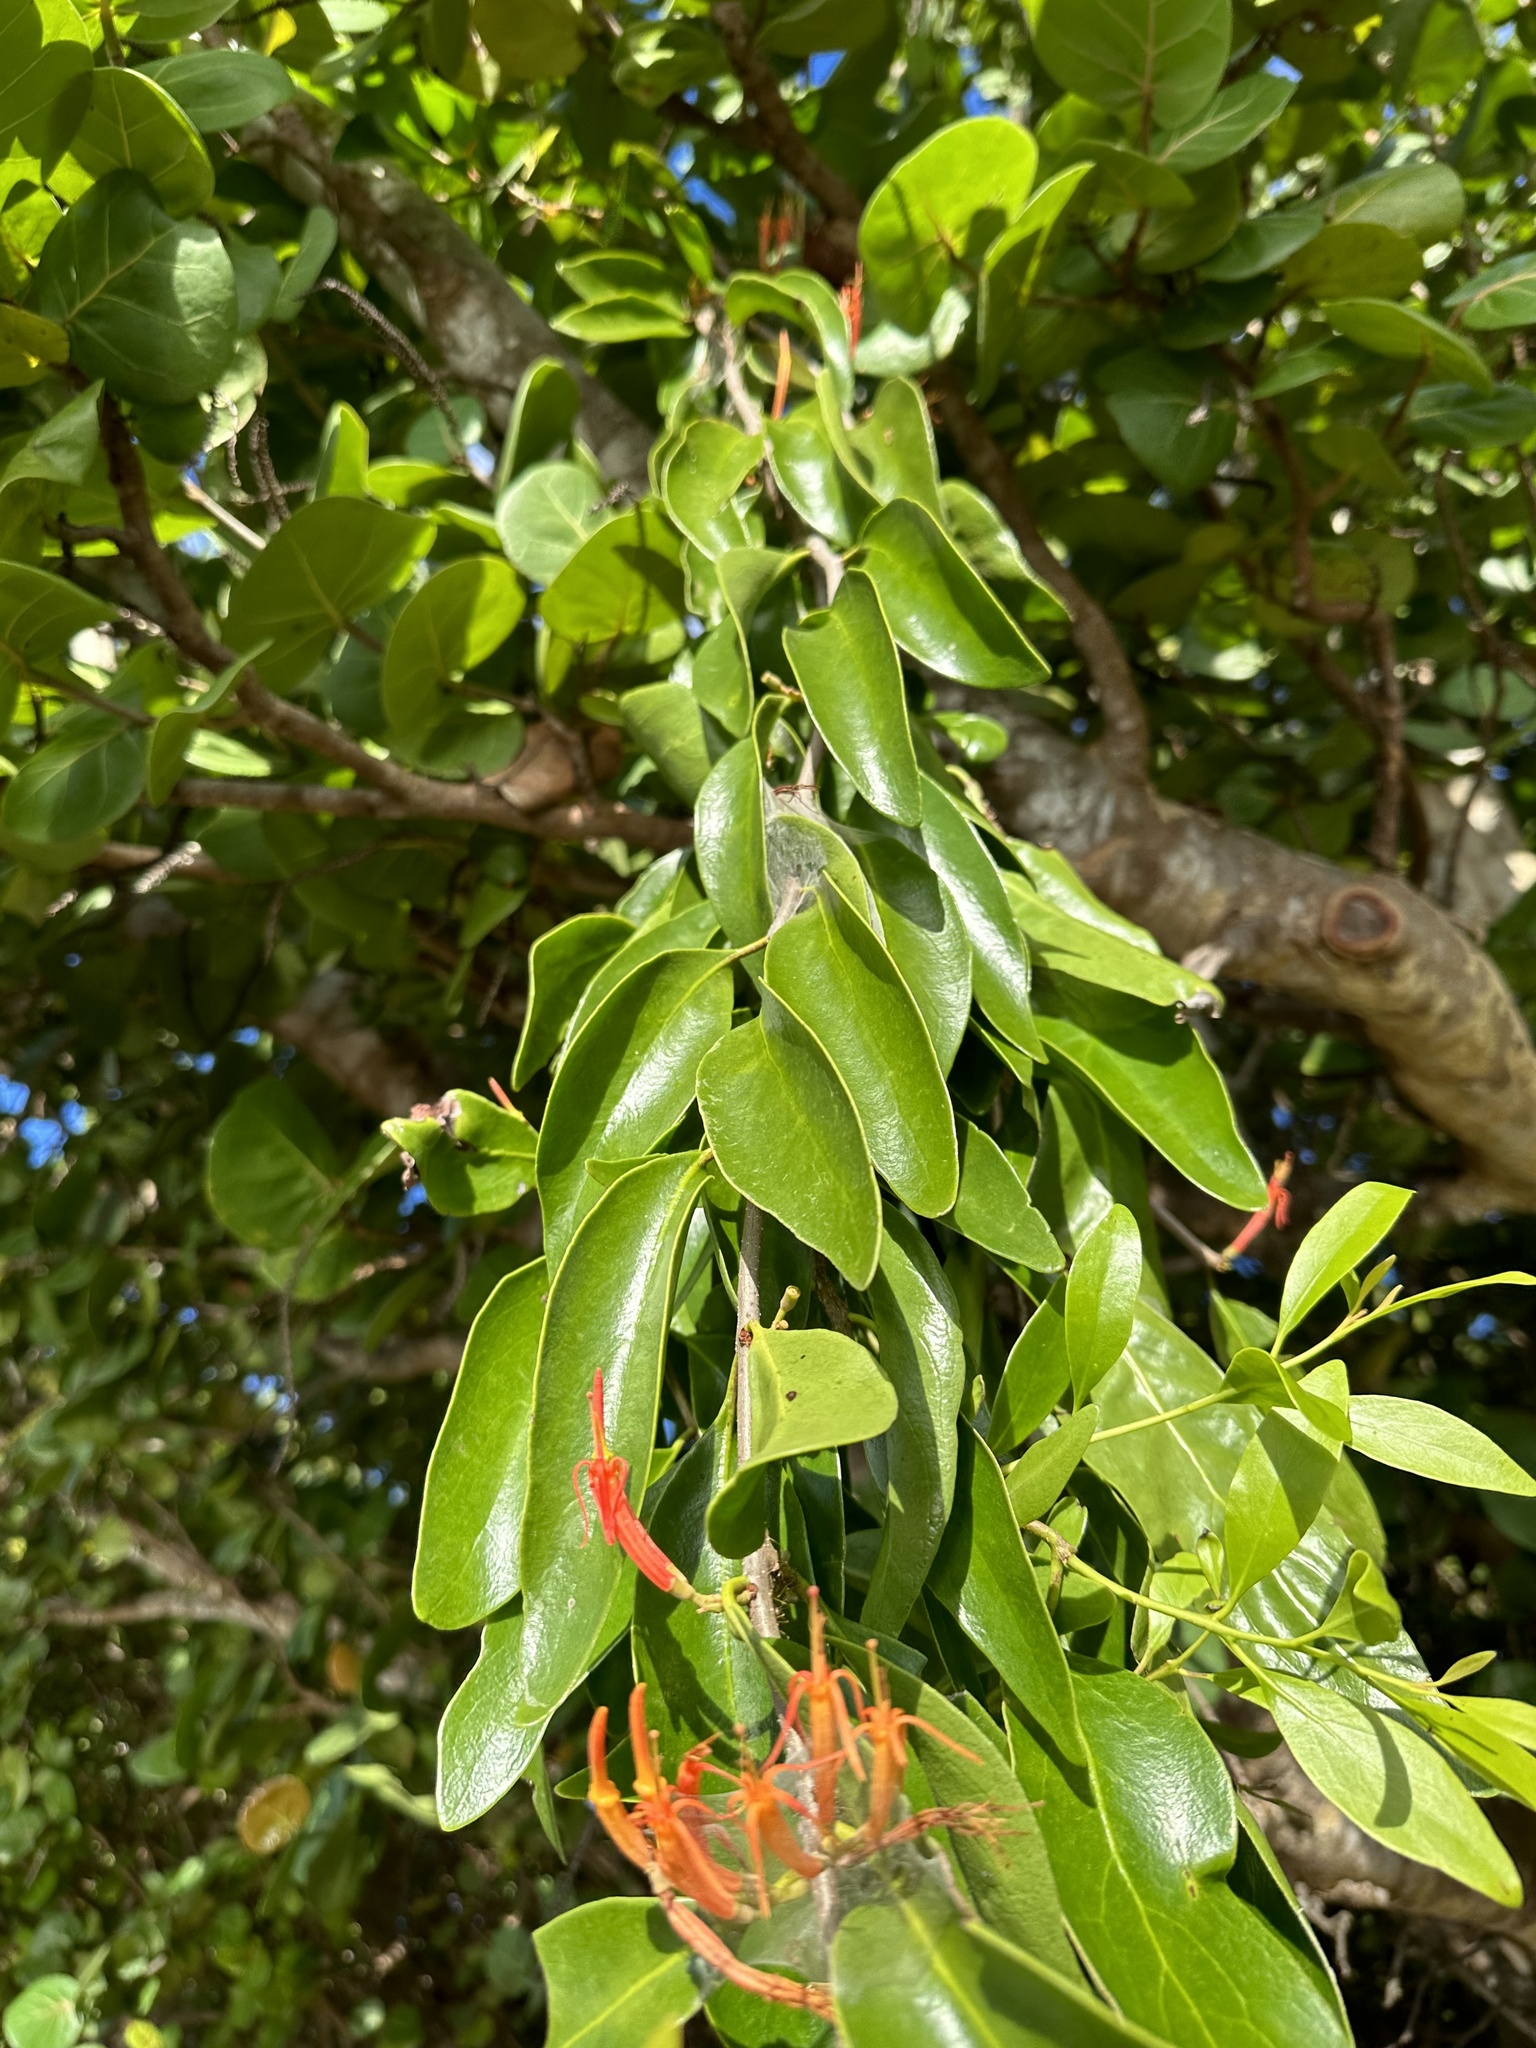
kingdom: Plantae
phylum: Tracheophyta
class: Magnoliopsida
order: Santalales
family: Loranthaceae
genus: Dendrophthoe
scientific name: Dendrophthoe curvata
